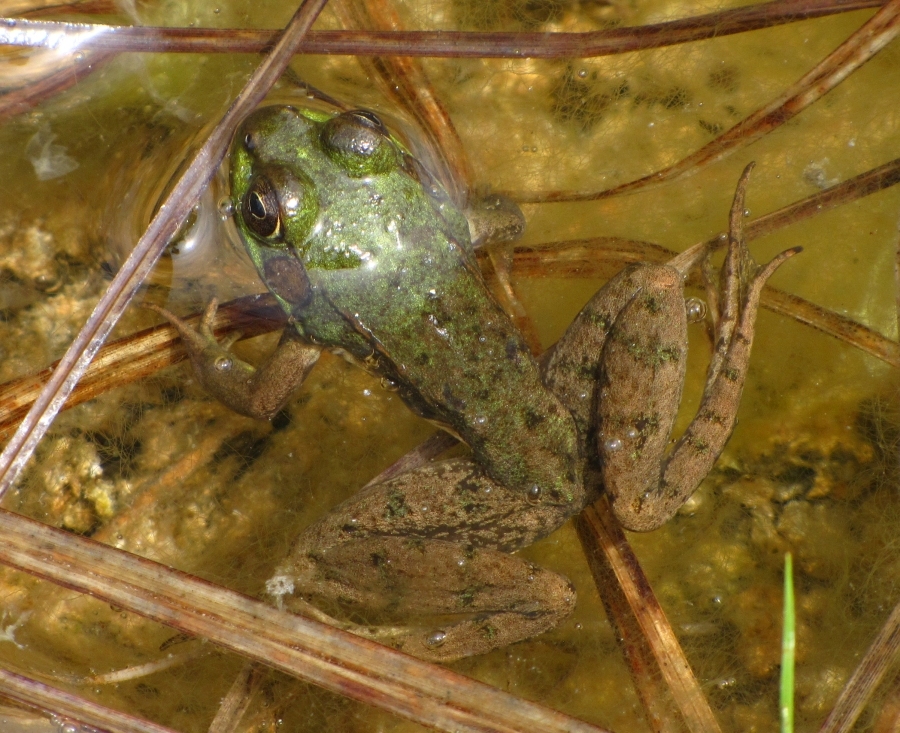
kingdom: Animalia
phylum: Chordata
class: Amphibia
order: Anura
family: Ranidae
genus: Lithobates
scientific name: Lithobates clamitans
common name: Green frog
